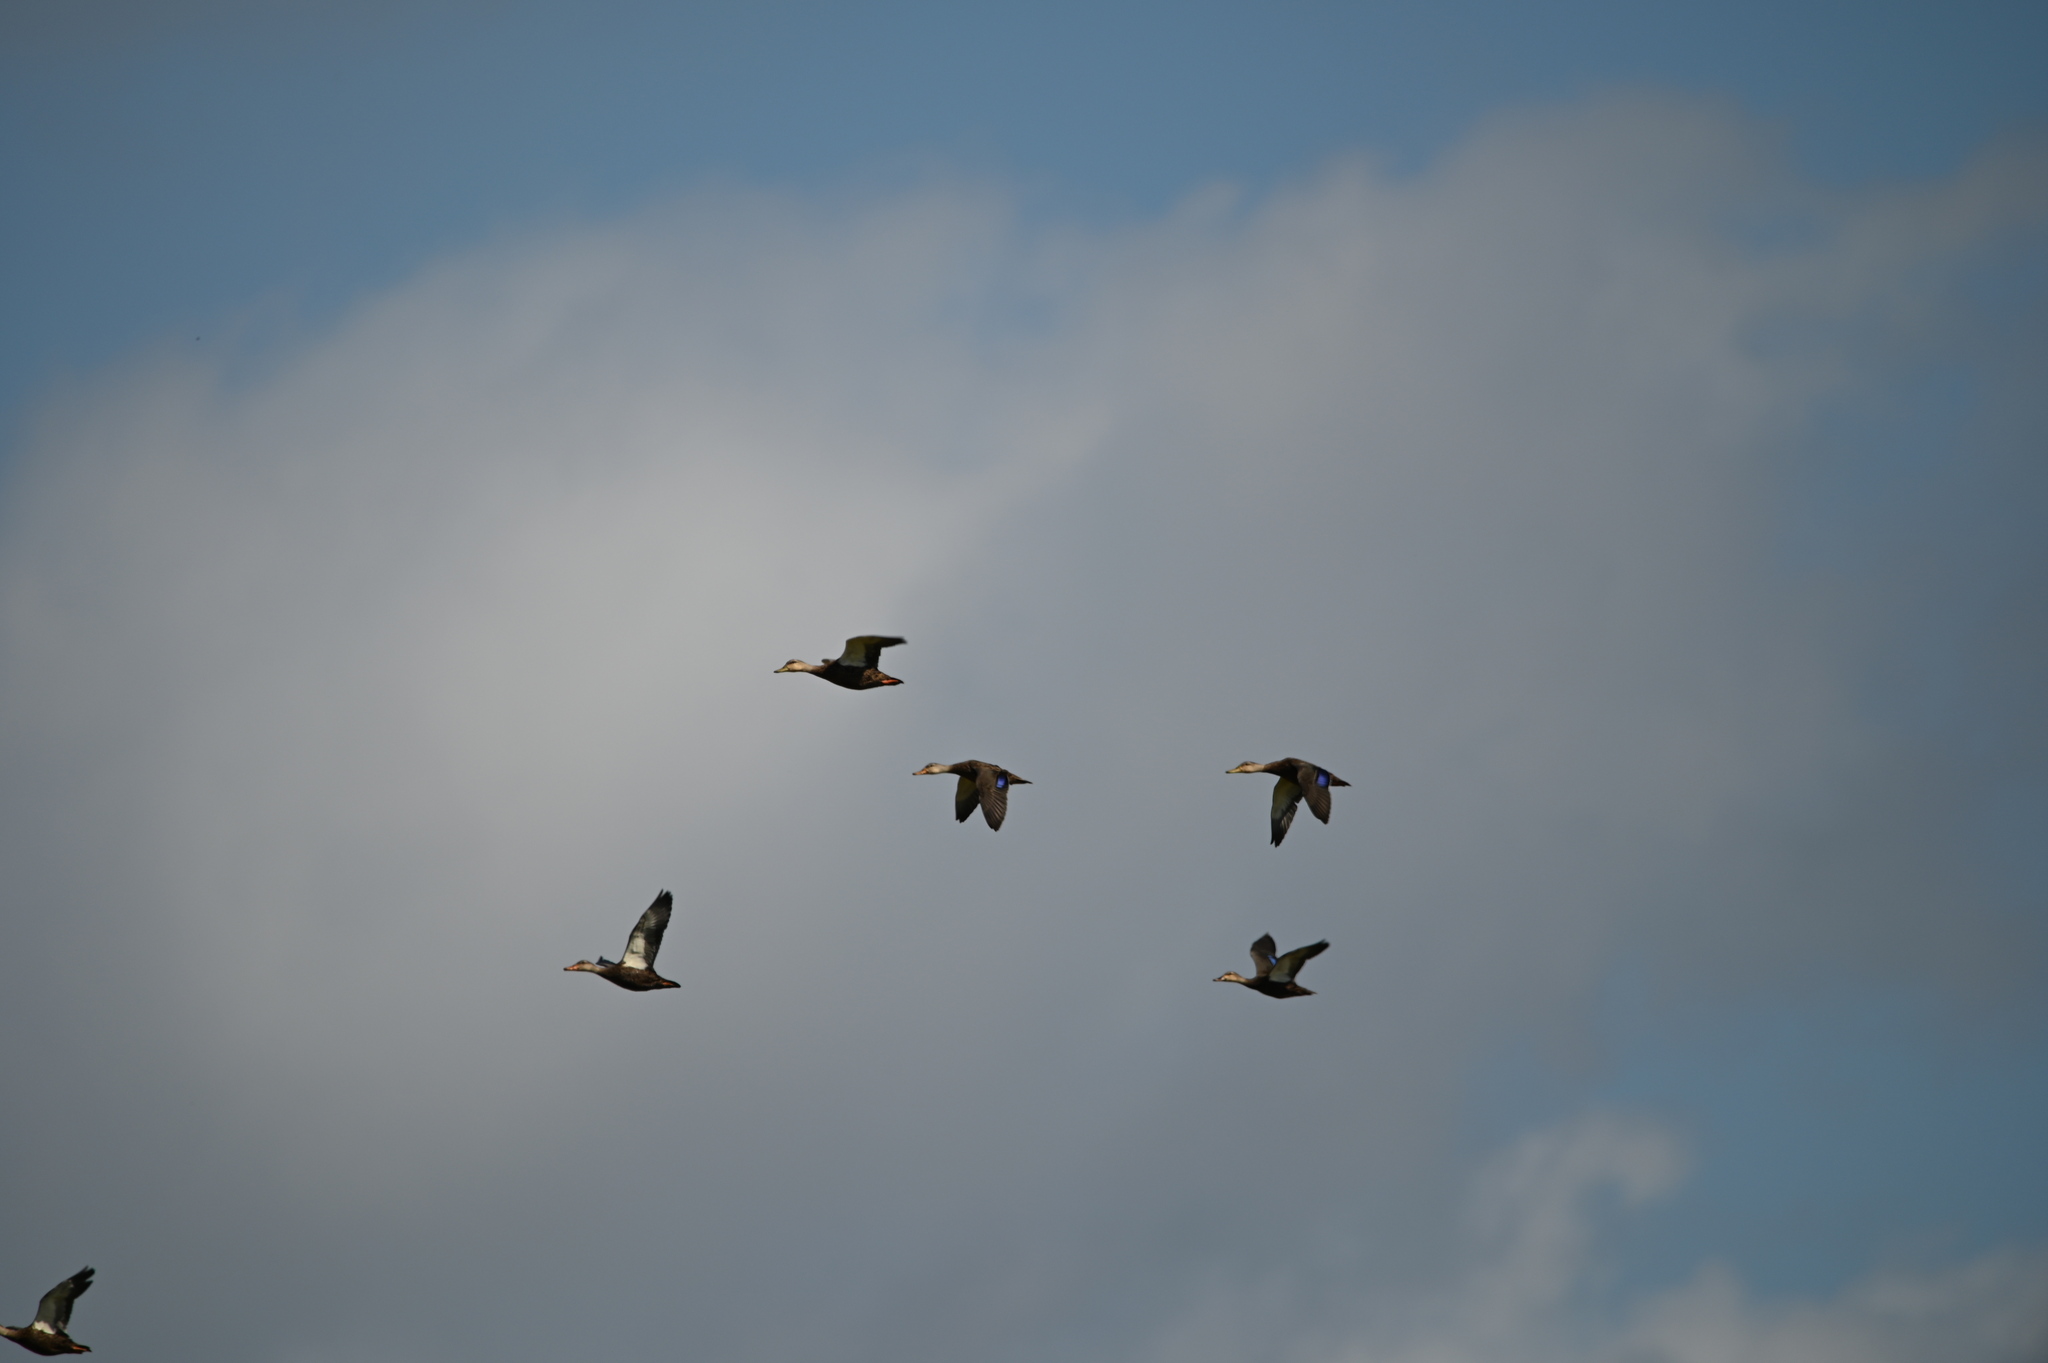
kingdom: Animalia
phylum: Chordata
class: Aves
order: Anseriformes
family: Anatidae
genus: Anas
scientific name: Anas fulvigula
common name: Mottled duck
